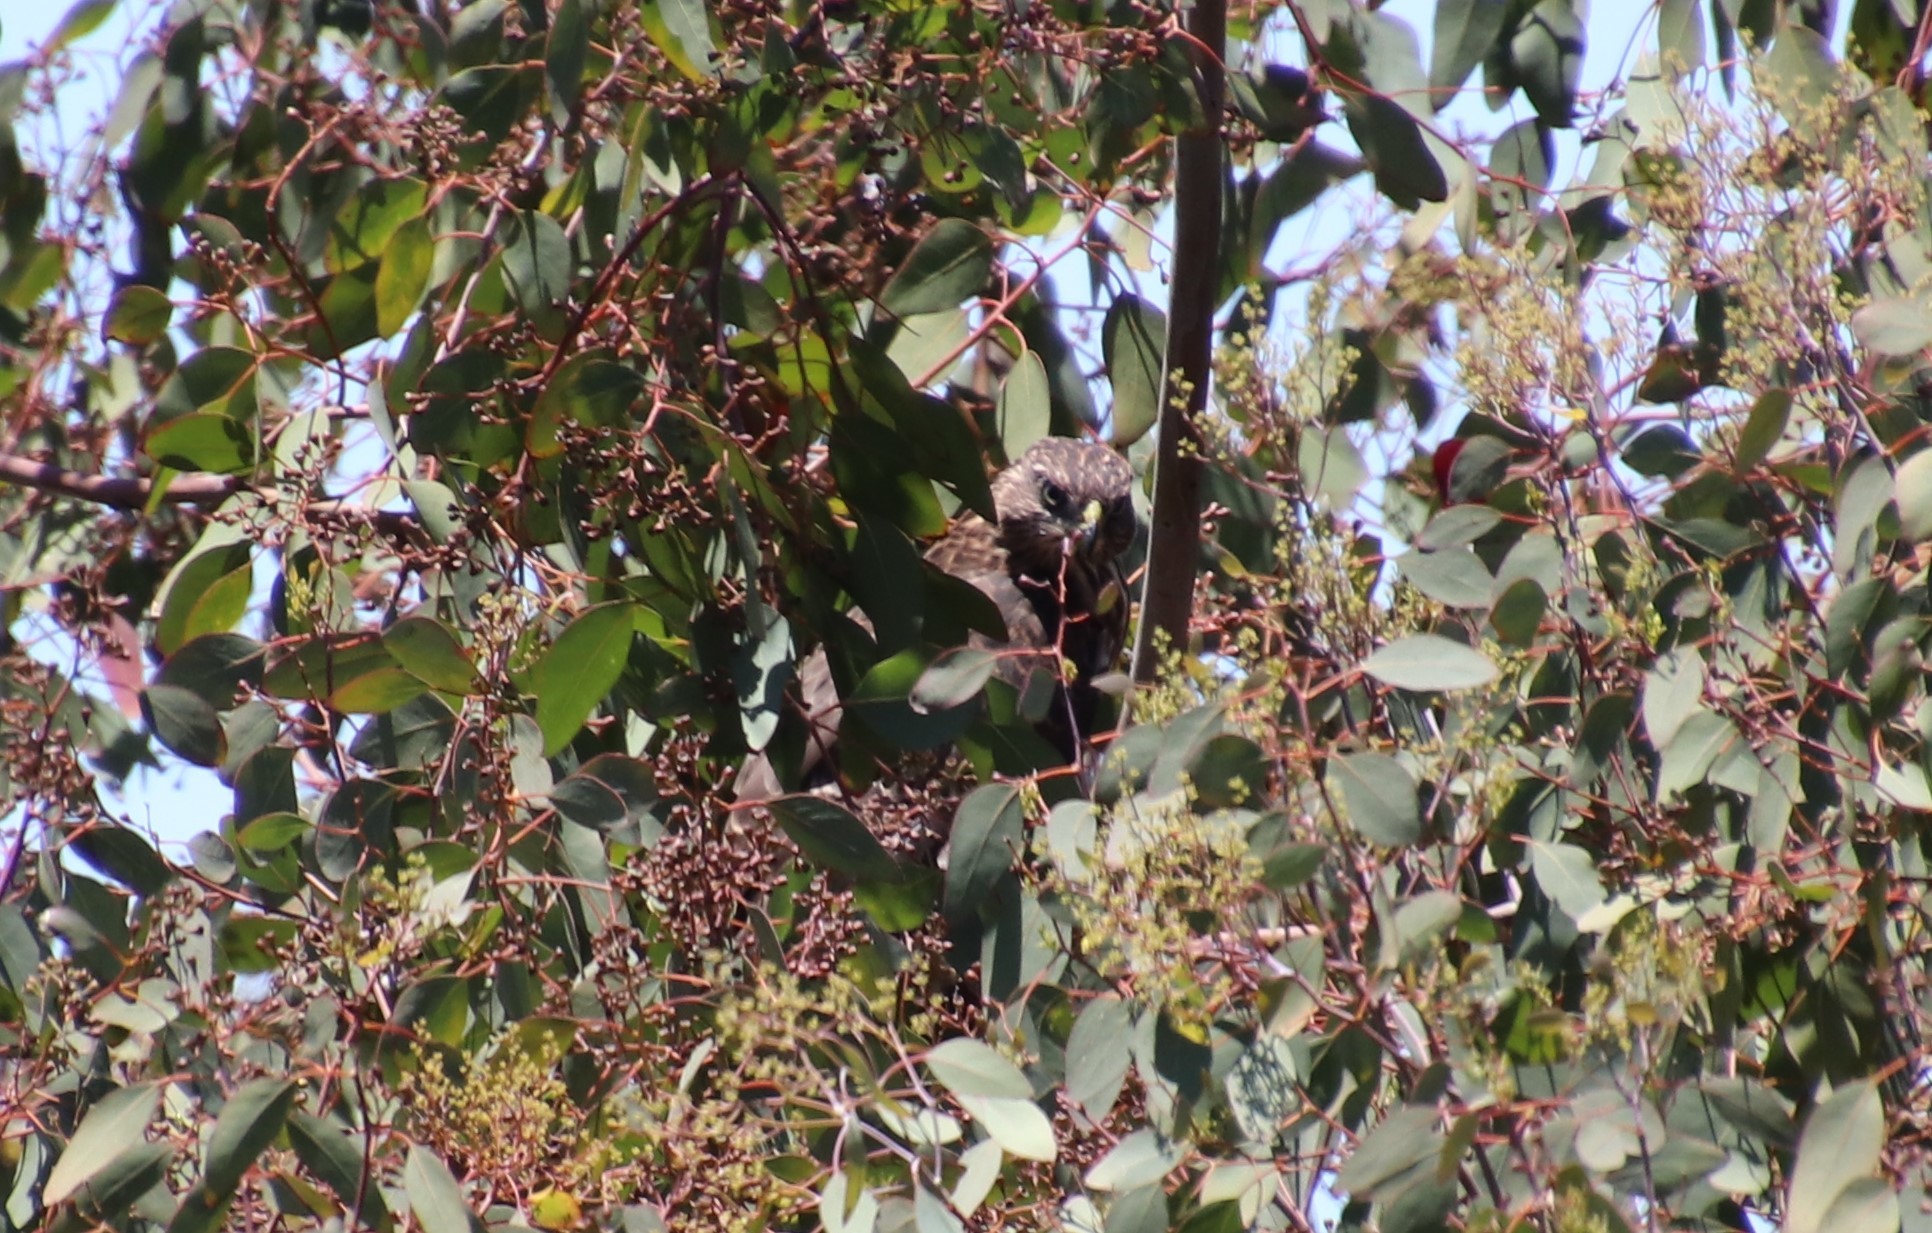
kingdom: Animalia
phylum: Chordata
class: Aves
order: Accipitriformes
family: Accipitridae
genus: Accipiter
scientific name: Accipiter cooperii
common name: Cooper's hawk
